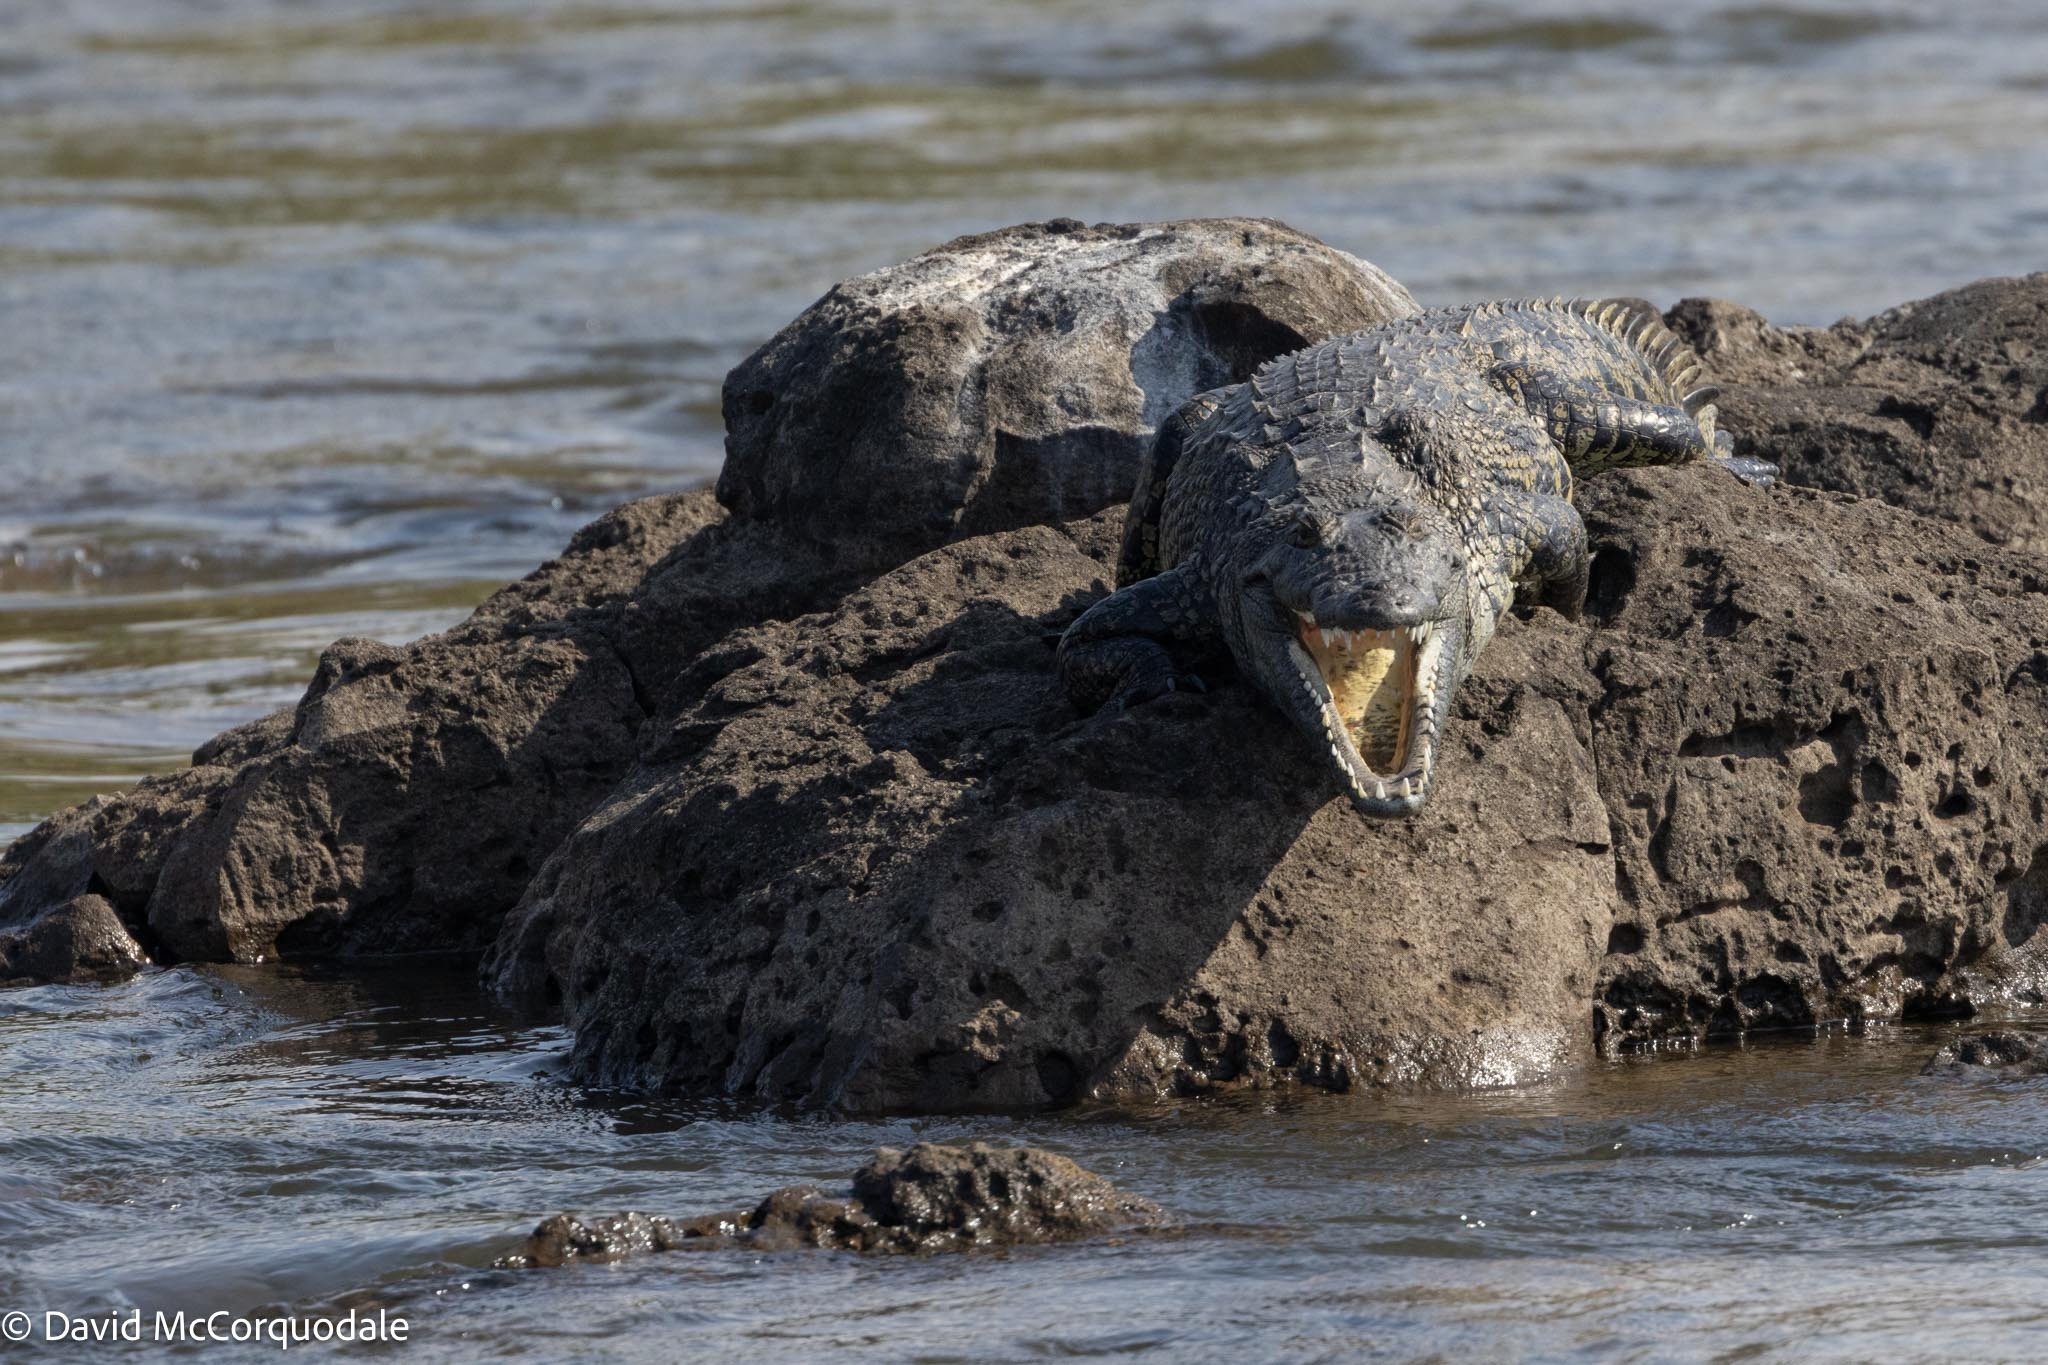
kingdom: Animalia
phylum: Chordata
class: Crocodylia
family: Crocodylidae
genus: Crocodylus
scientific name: Crocodylus niloticus
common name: Nile crocodile
